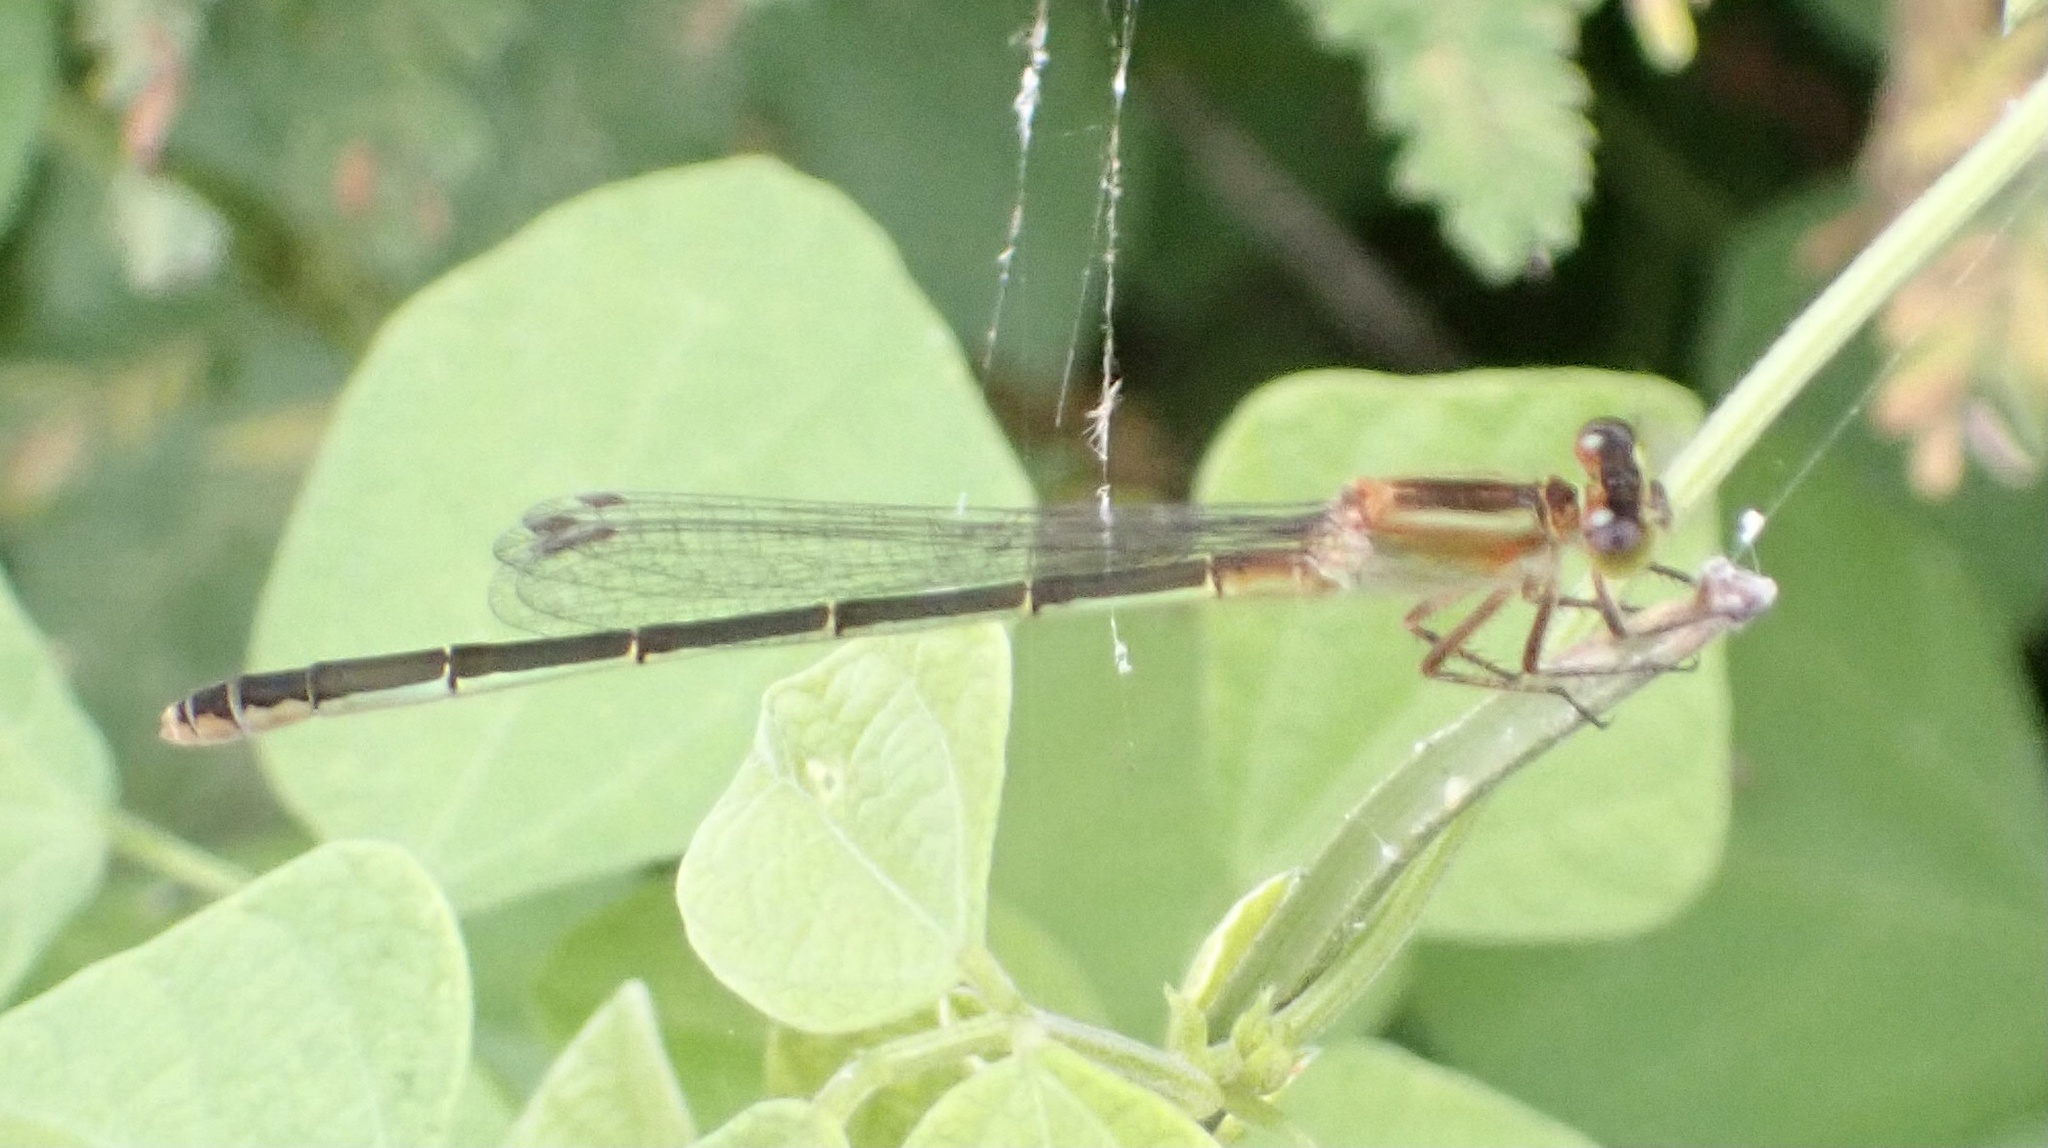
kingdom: Animalia
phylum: Arthropoda
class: Insecta
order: Odonata
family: Coenagrionidae
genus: Ischnura
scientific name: Ischnura ramburii
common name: Rambur's forktail
